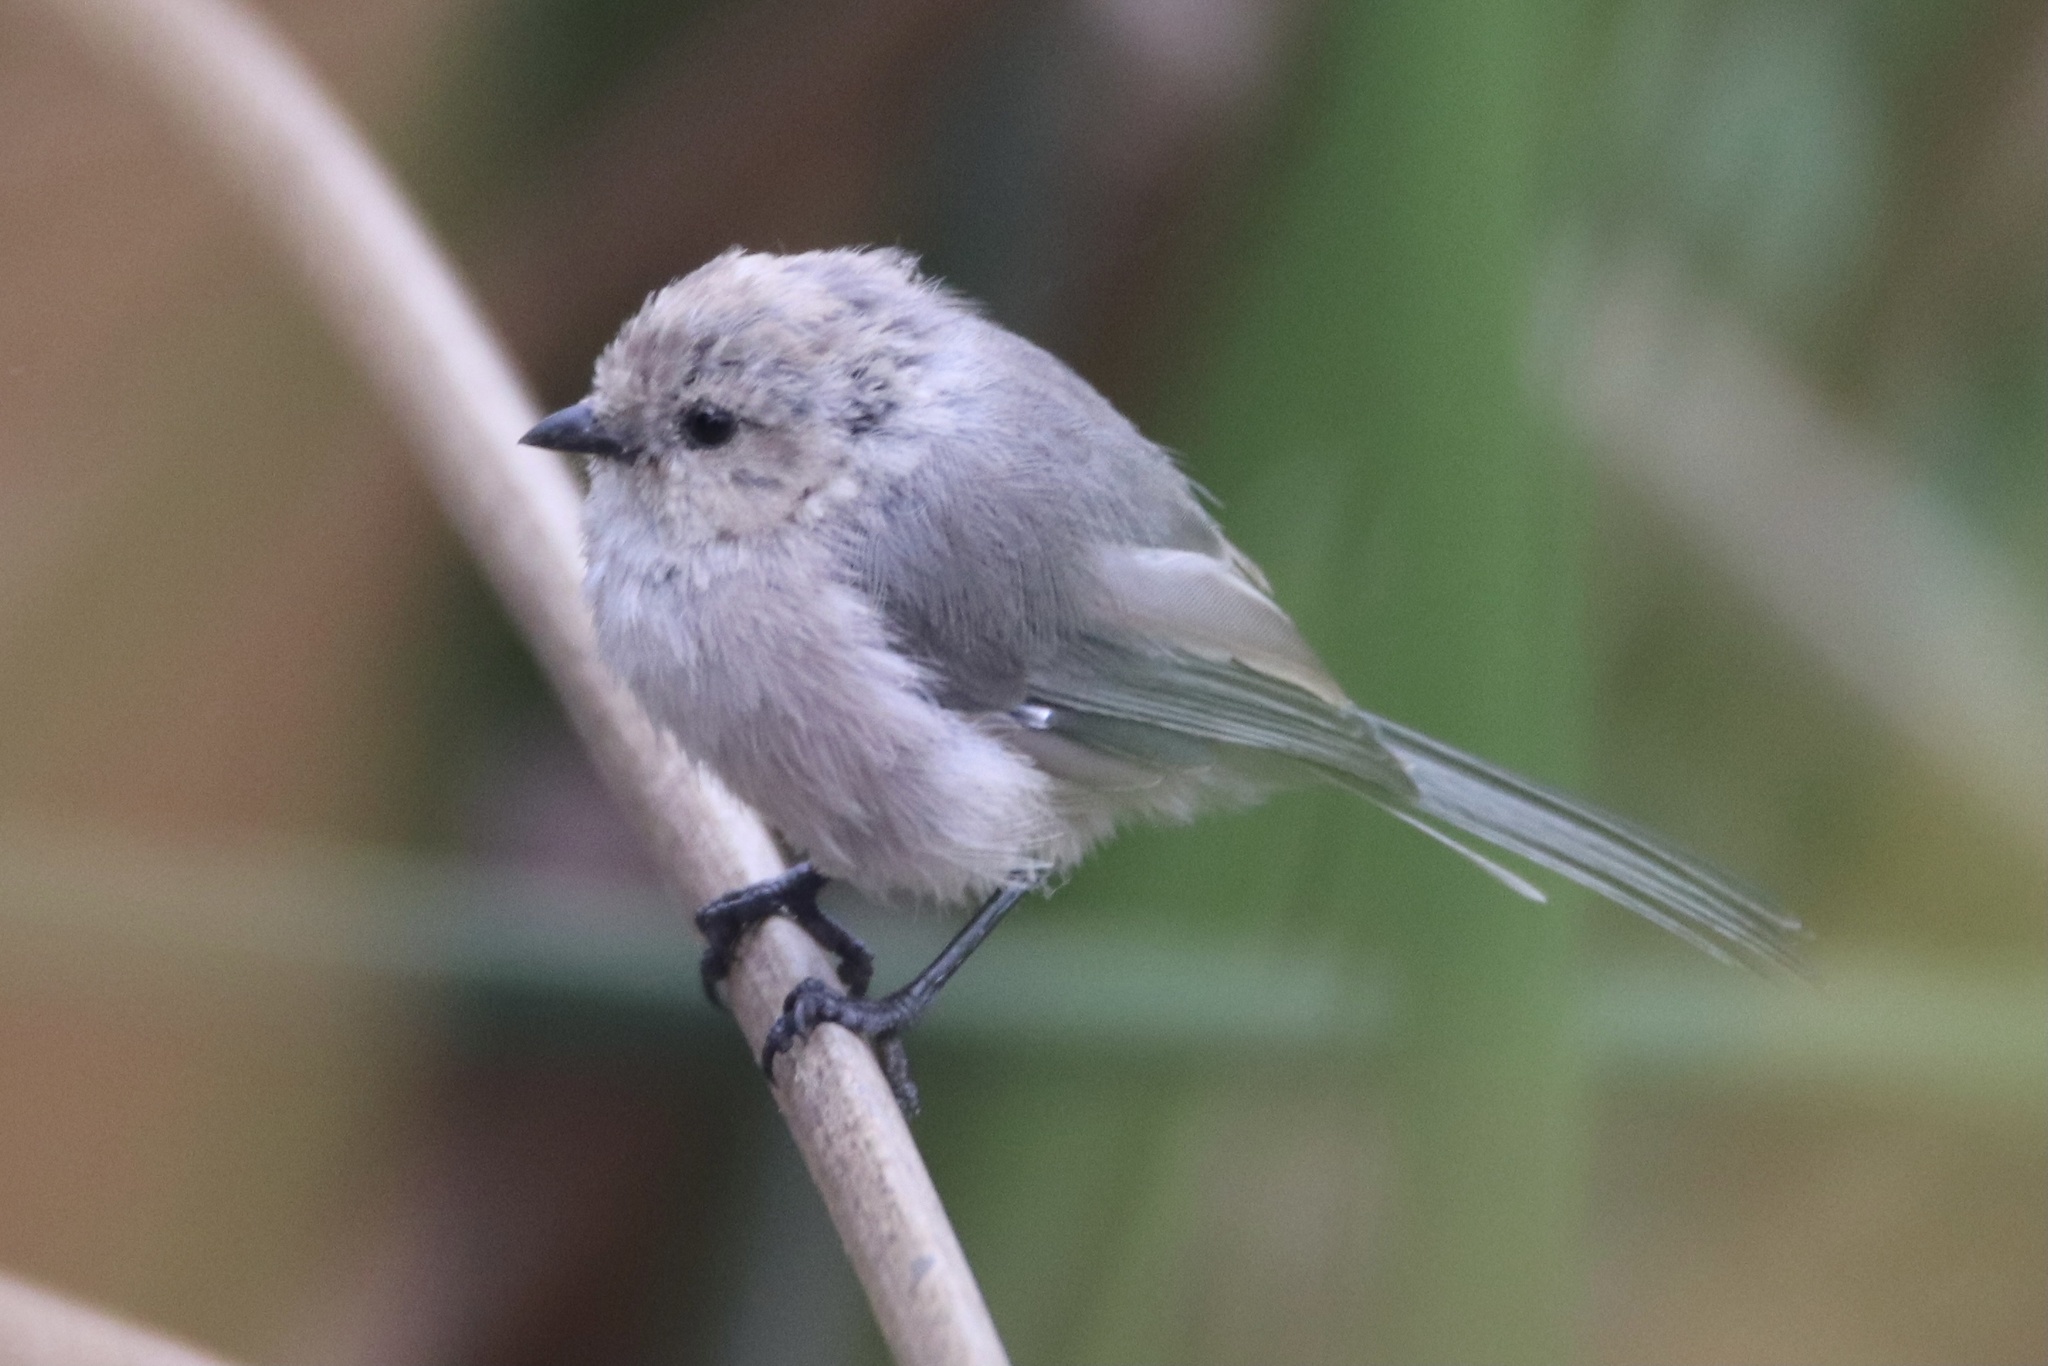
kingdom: Animalia
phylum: Chordata
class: Aves
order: Passeriformes
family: Aegithalidae
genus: Psaltriparus
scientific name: Psaltriparus minimus
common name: American bushtit
